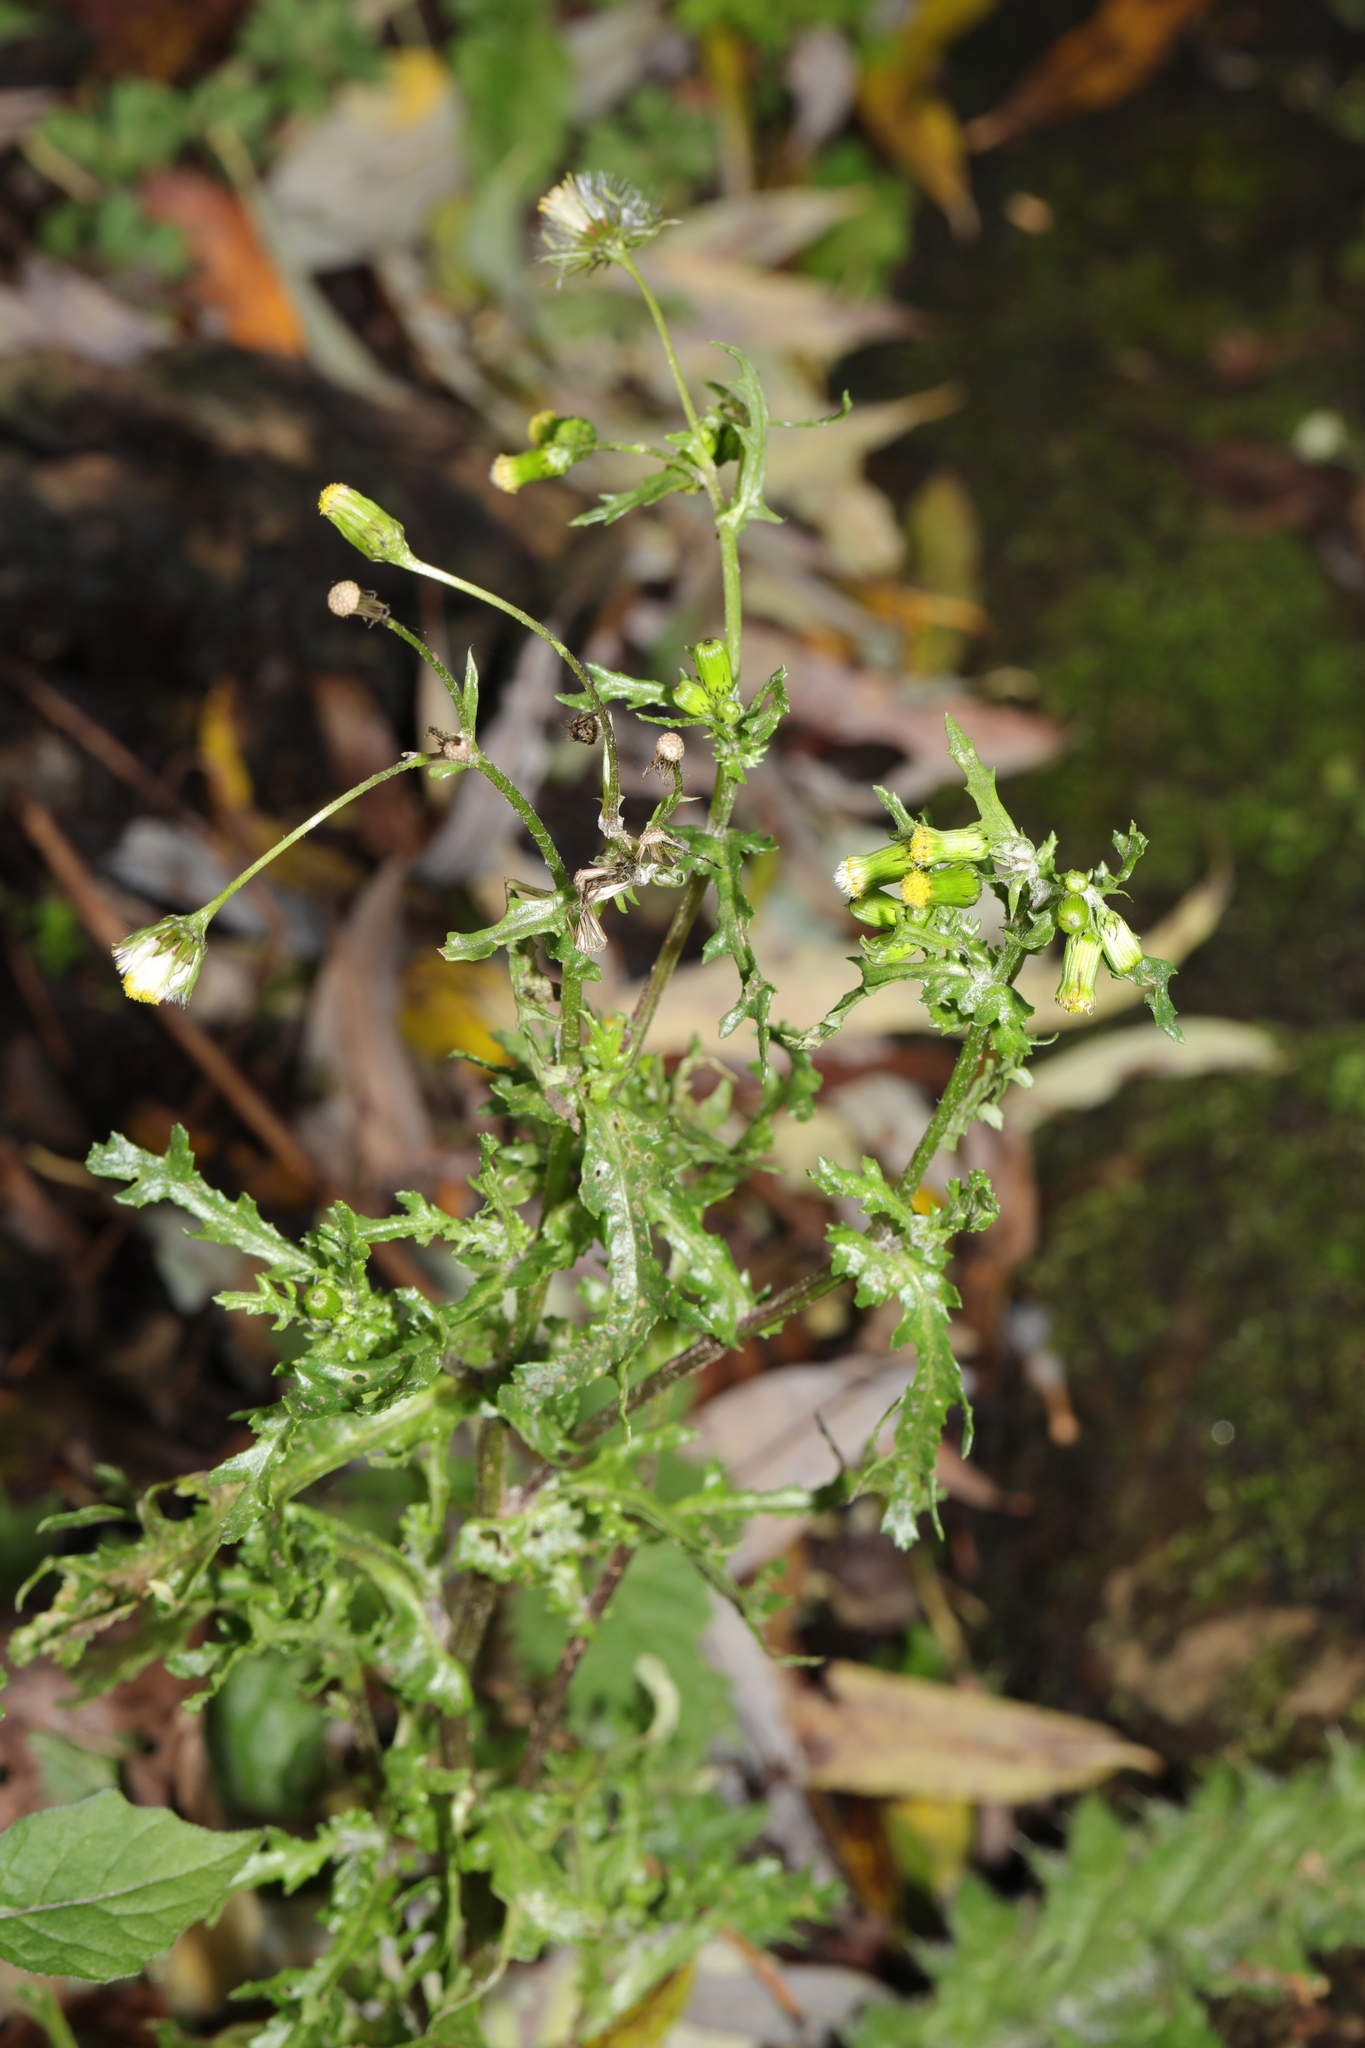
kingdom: Plantae
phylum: Tracheophyta
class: Magnoliopsida
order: Asterales
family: Asteraceae
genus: Senecio
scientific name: Senecio vulgaris
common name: Old-man-in-the-spring
